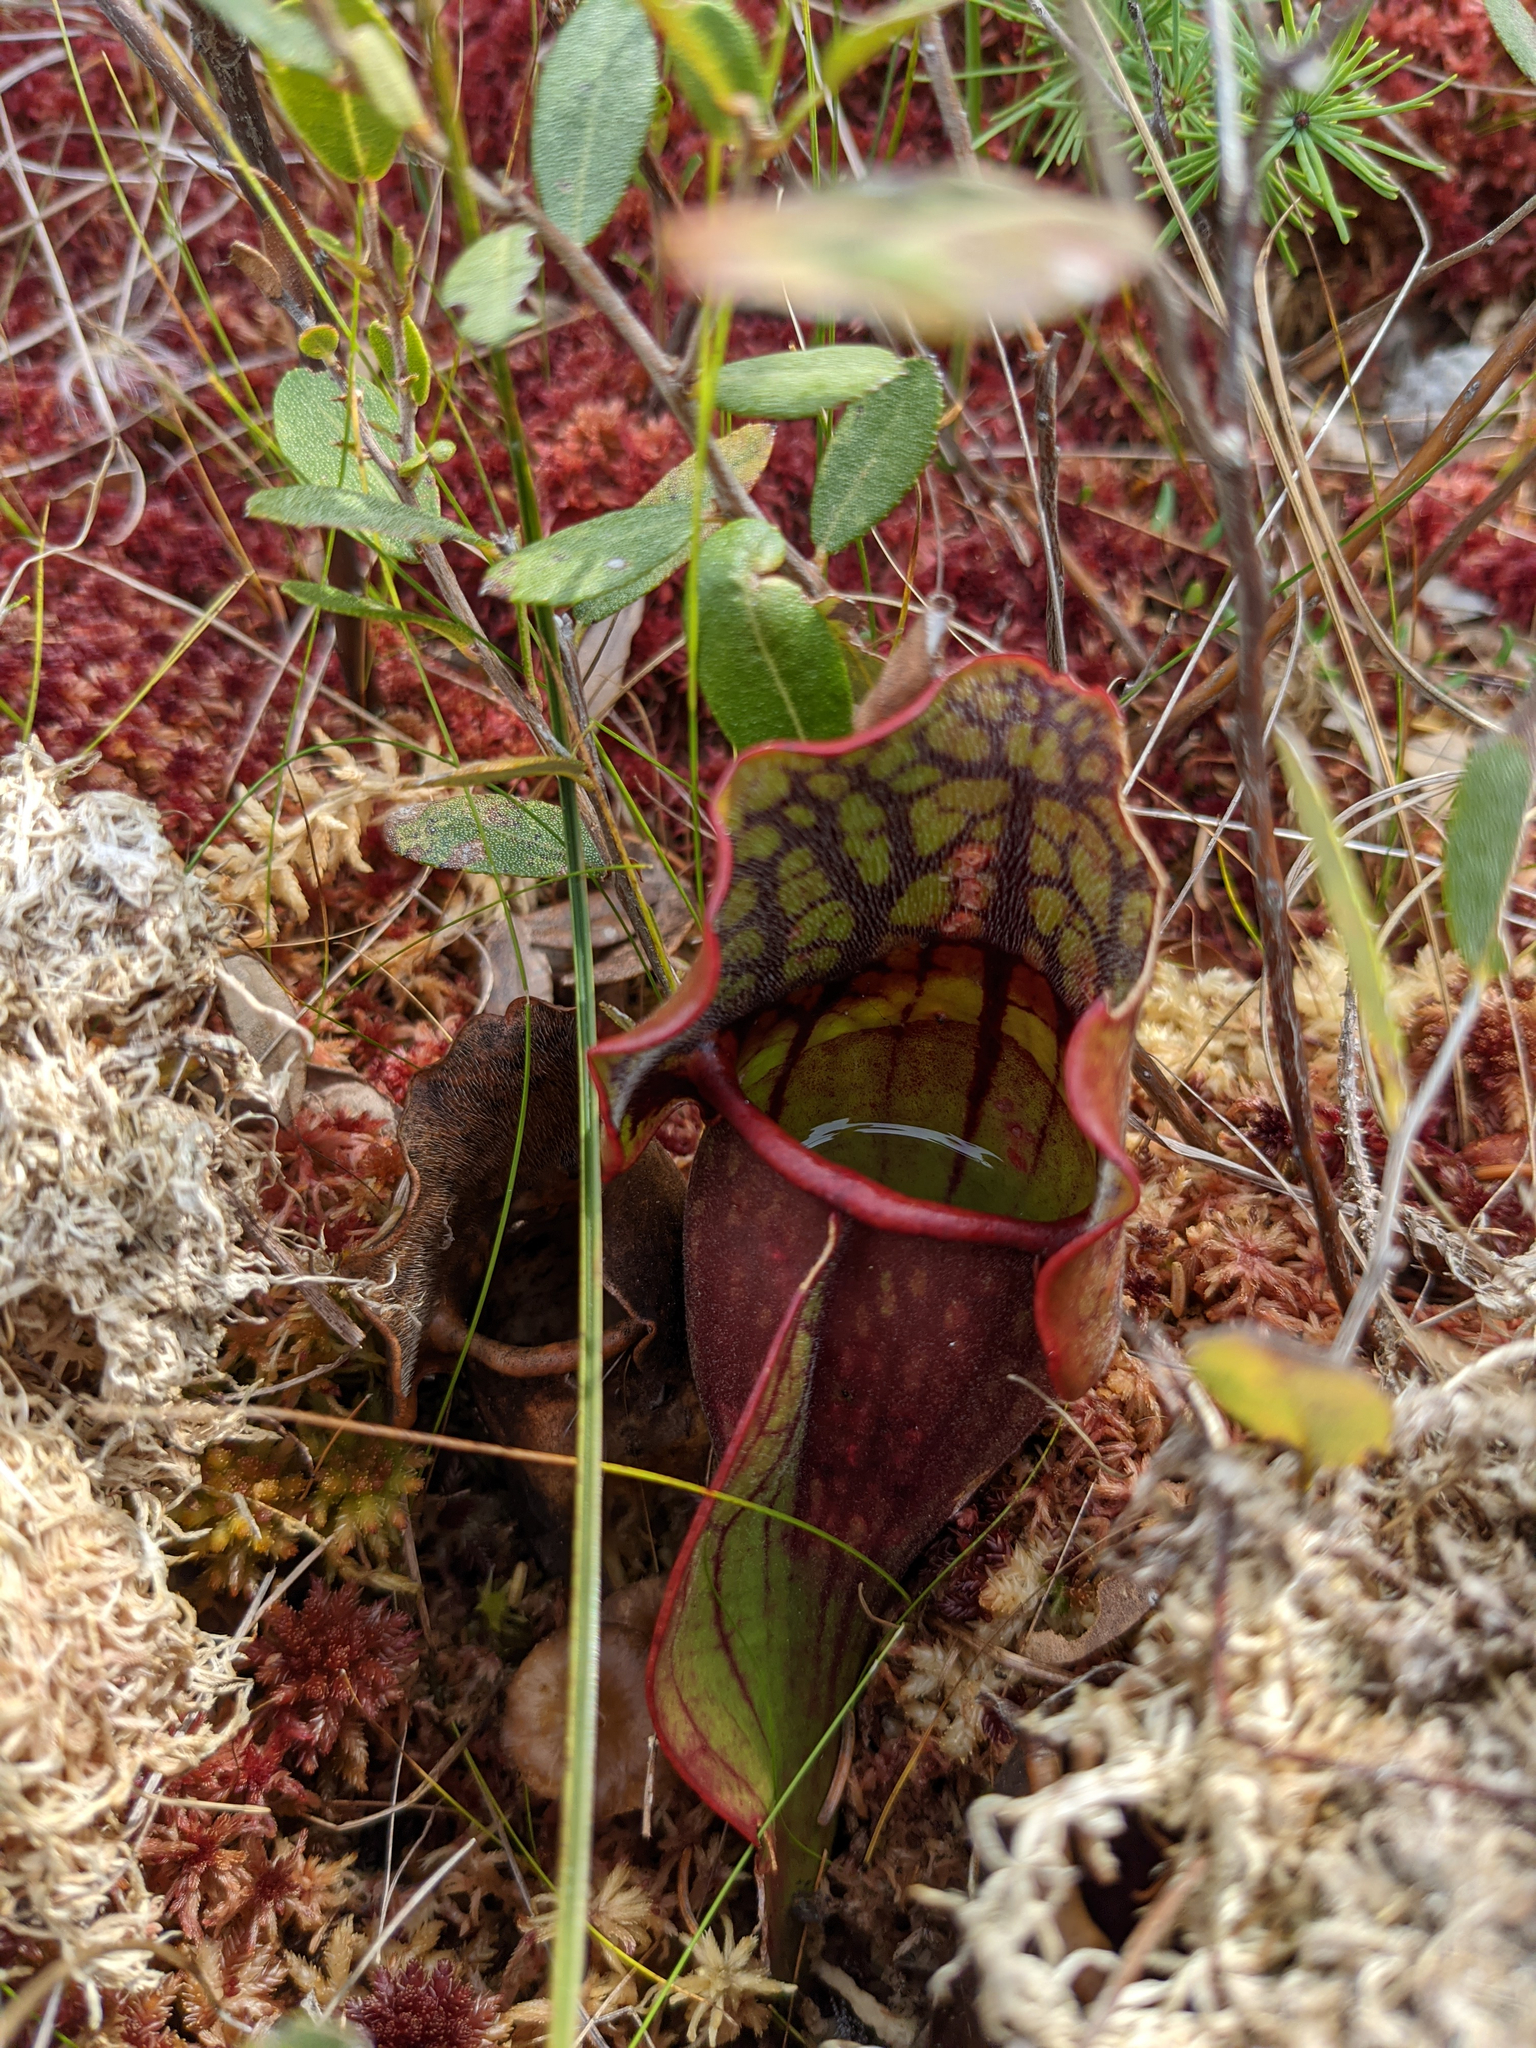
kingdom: Plantae
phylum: Tracheophyta
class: Magnoliopsida
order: Ericales
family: Sarraceniaceae
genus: Sarracenia
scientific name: Sarracenia purpurea
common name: Pitcherplant
